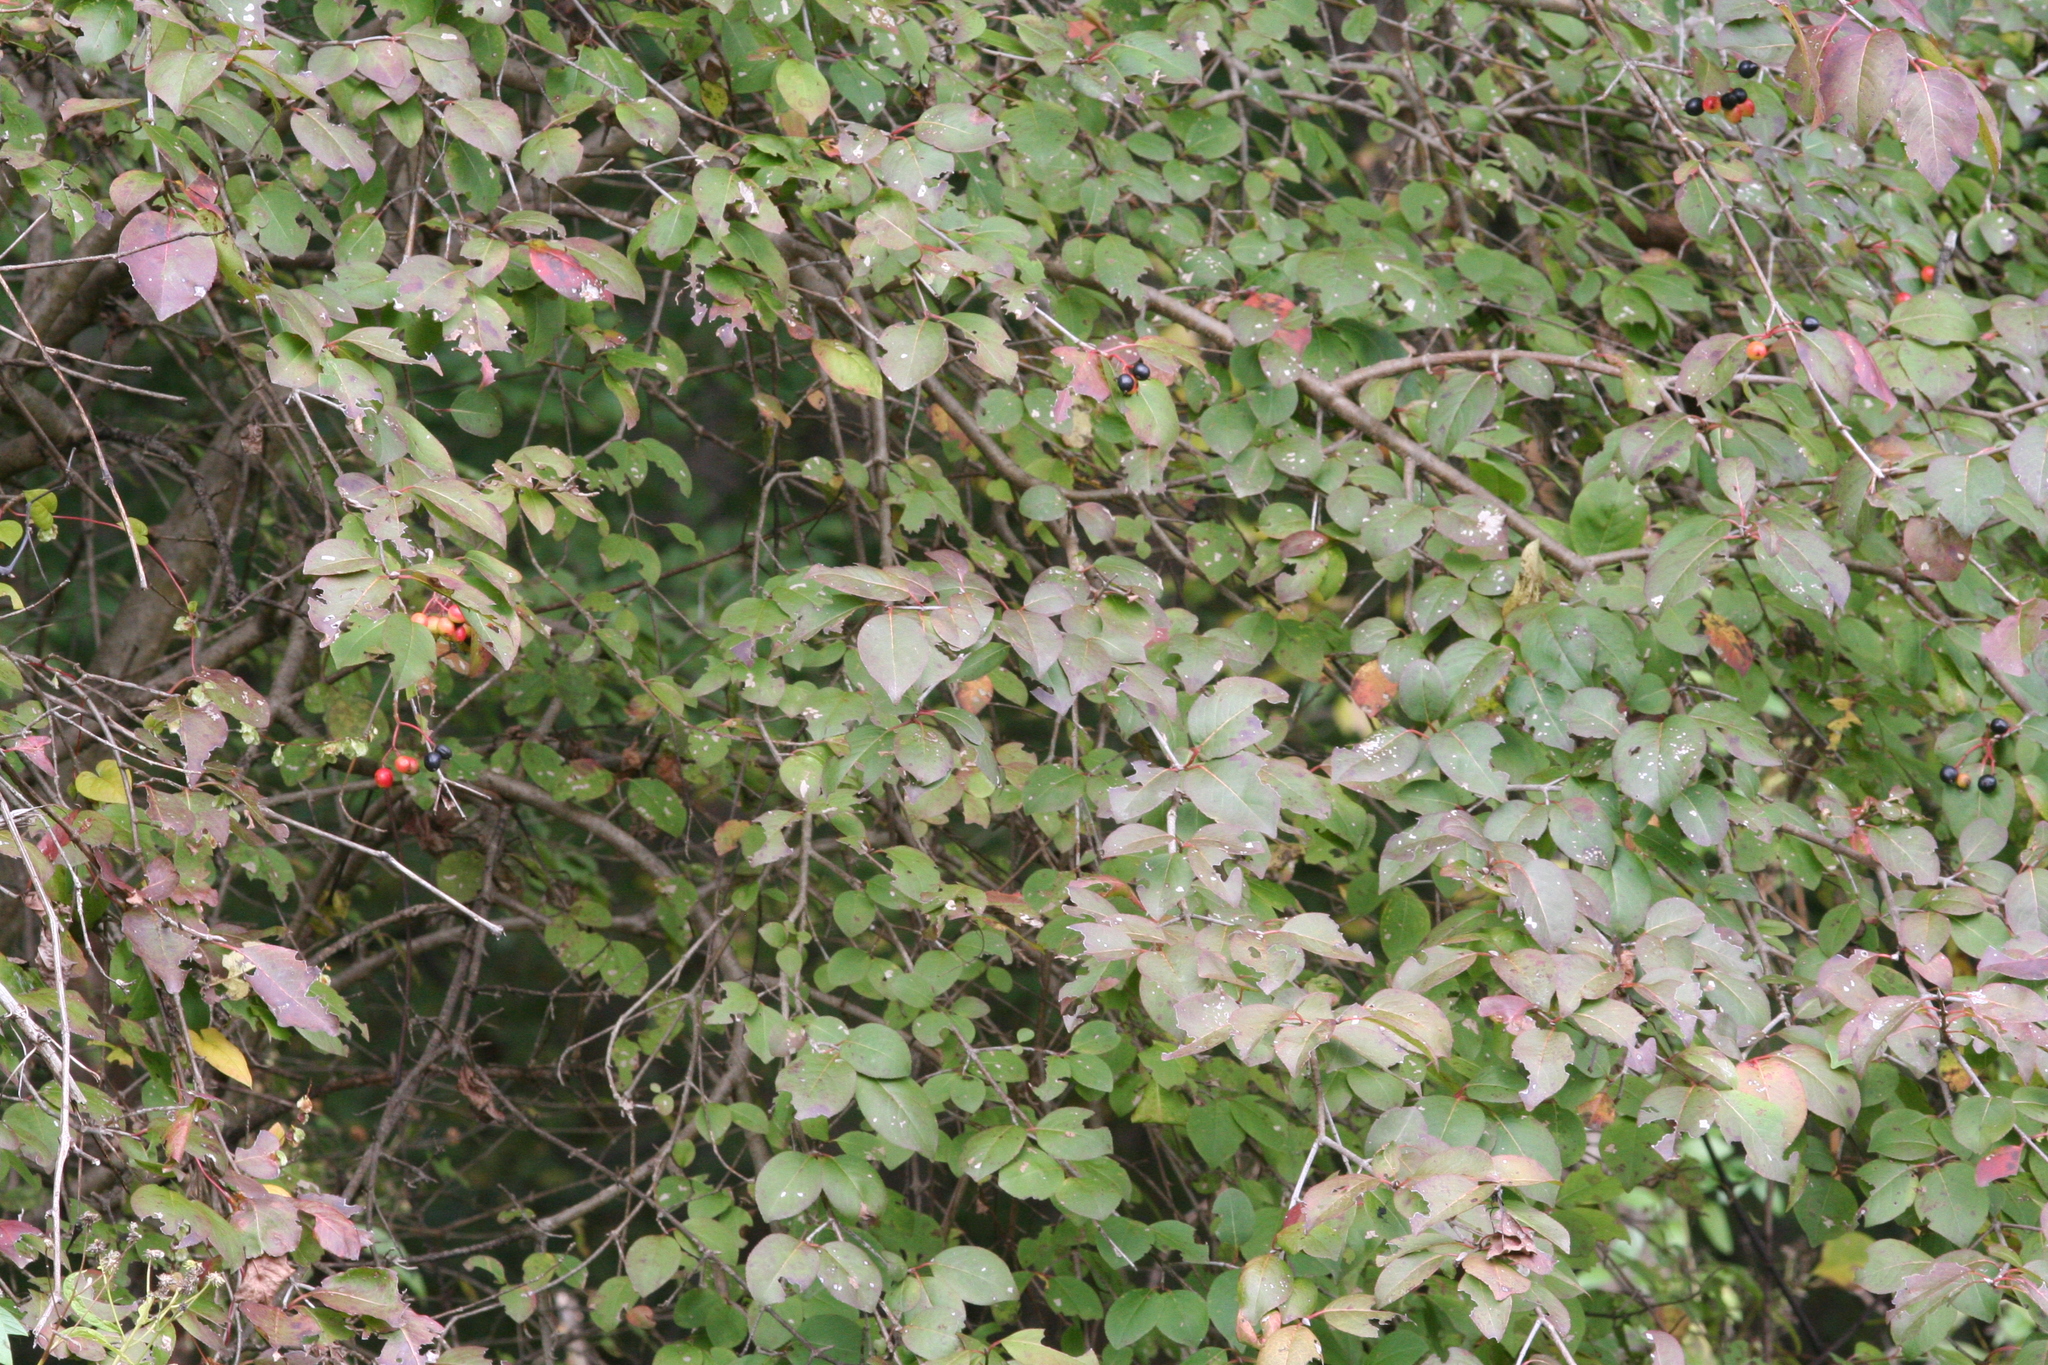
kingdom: Plantae
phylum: Tracheophyta
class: Magnoliopsida
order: Dipsacales
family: Viburnaceae
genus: Viburnum
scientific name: Viburnum prunifolium
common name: Black haw
